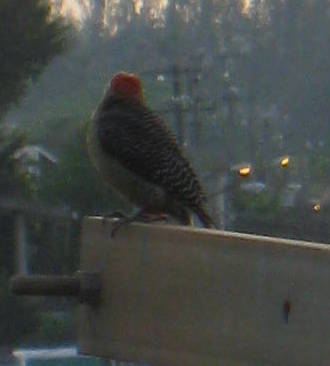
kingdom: Animalia
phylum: Chordata
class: Aves
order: Piciformes
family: Picidae
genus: Melanerpes
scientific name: Melanerpes aurifrons
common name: Golden-fronted woodpecker
